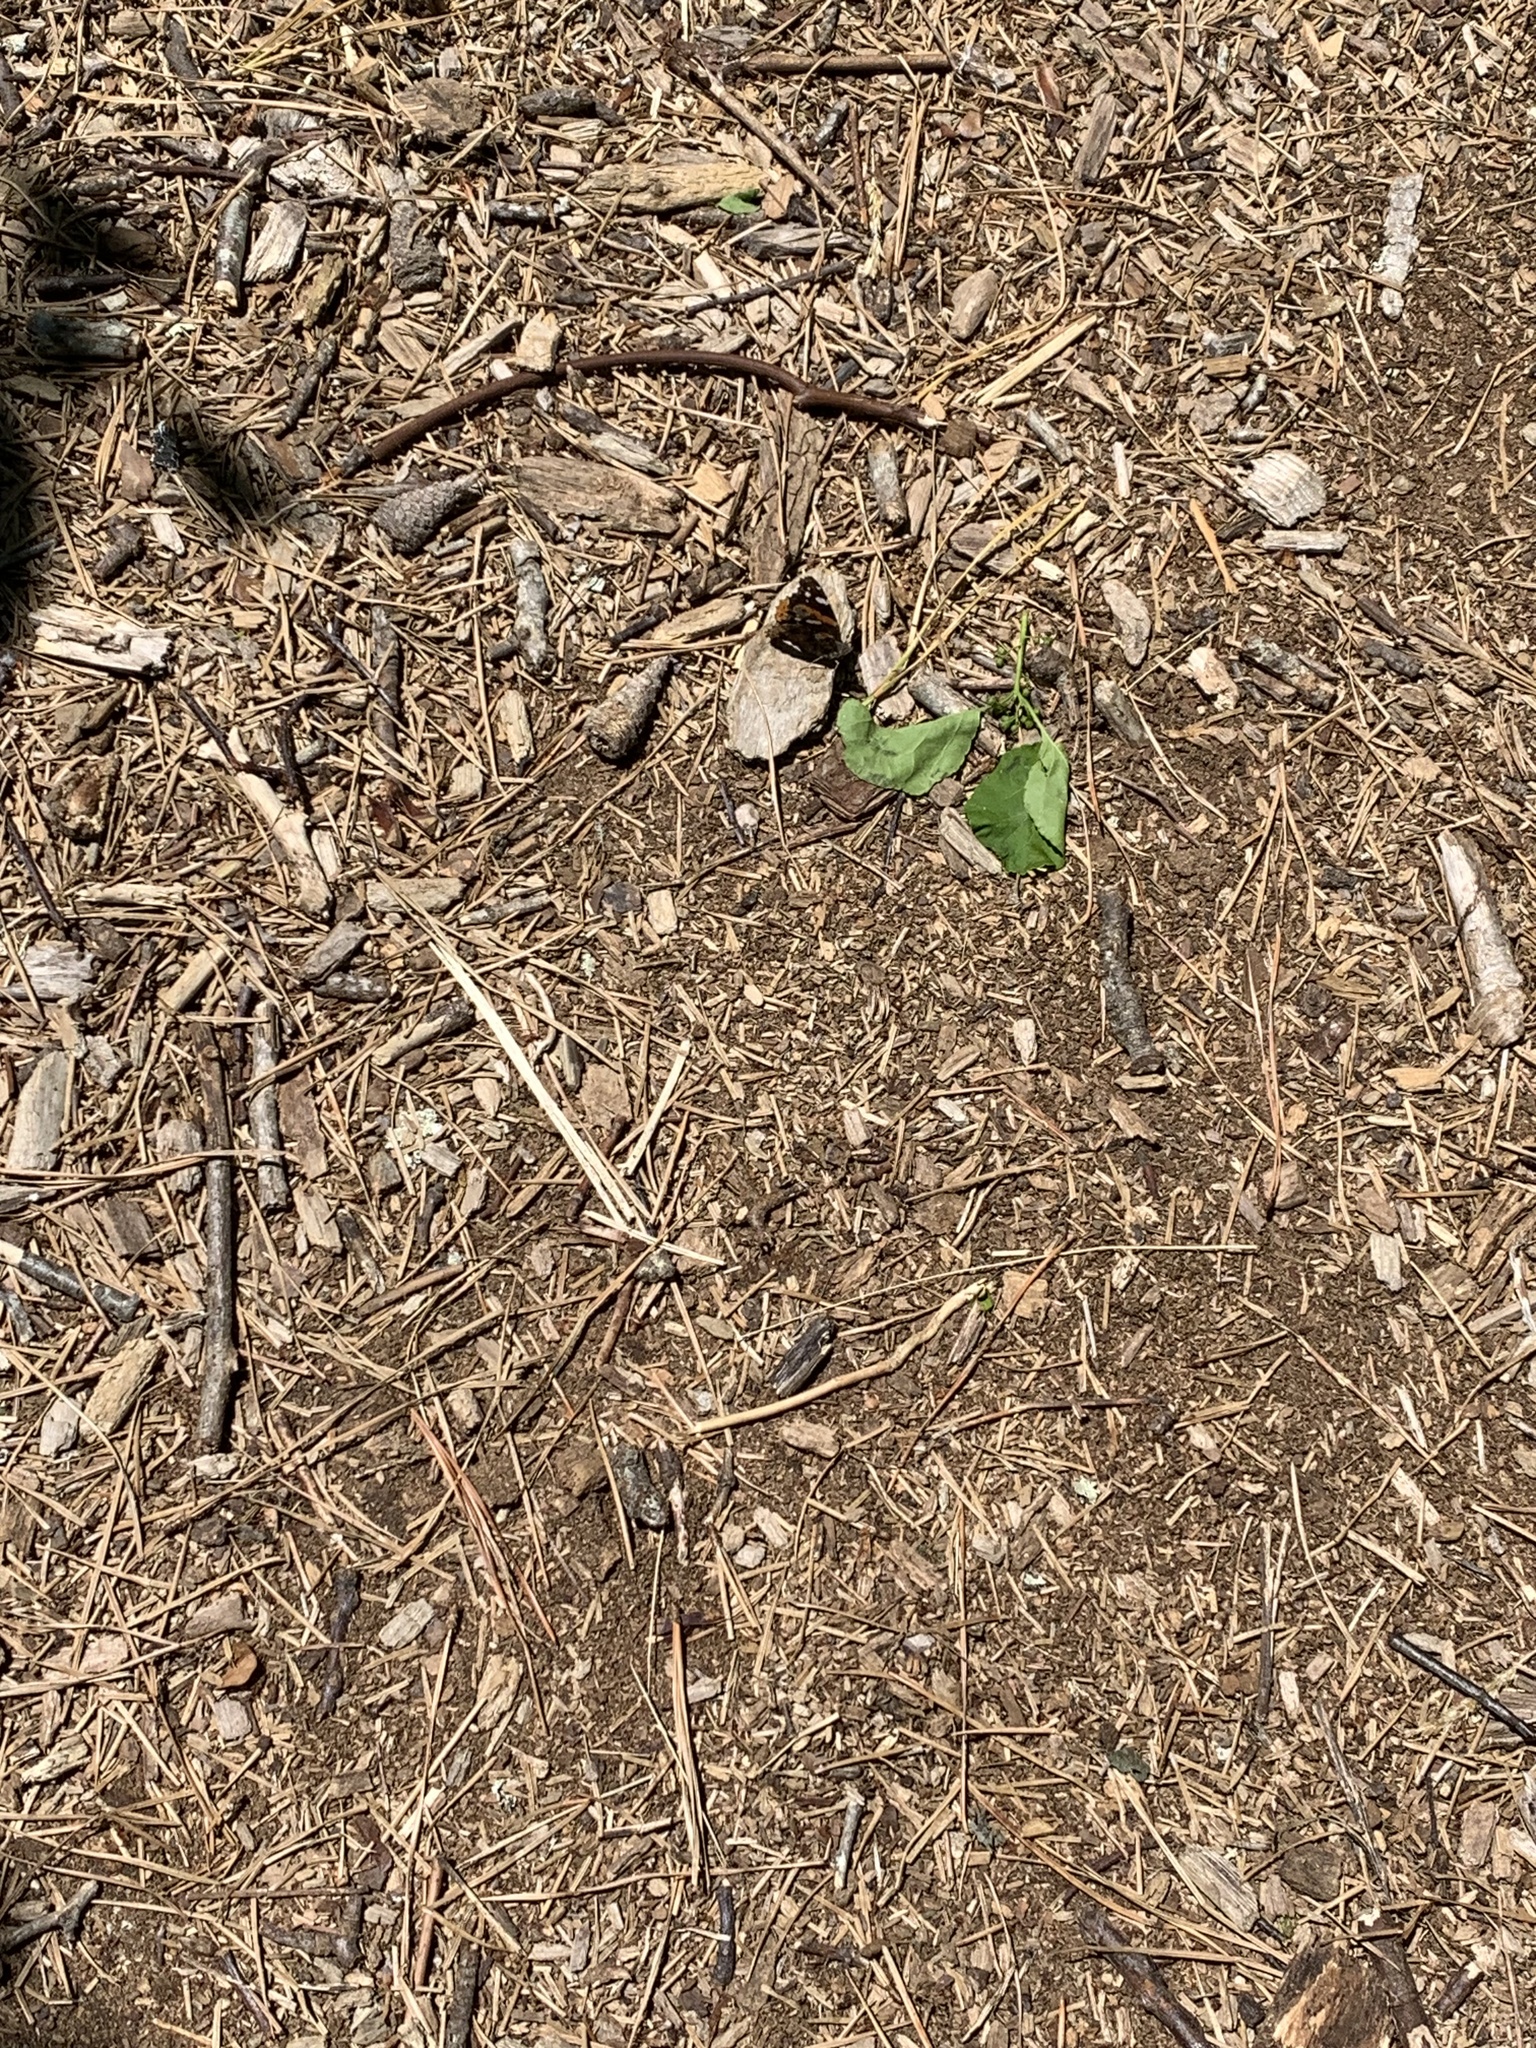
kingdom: Animalia
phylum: Arthropoda
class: Insecta
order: Lepidoptera
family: Nymphalidae
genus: Vanessa
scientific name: Vanessa atalanta
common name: Red admiral
